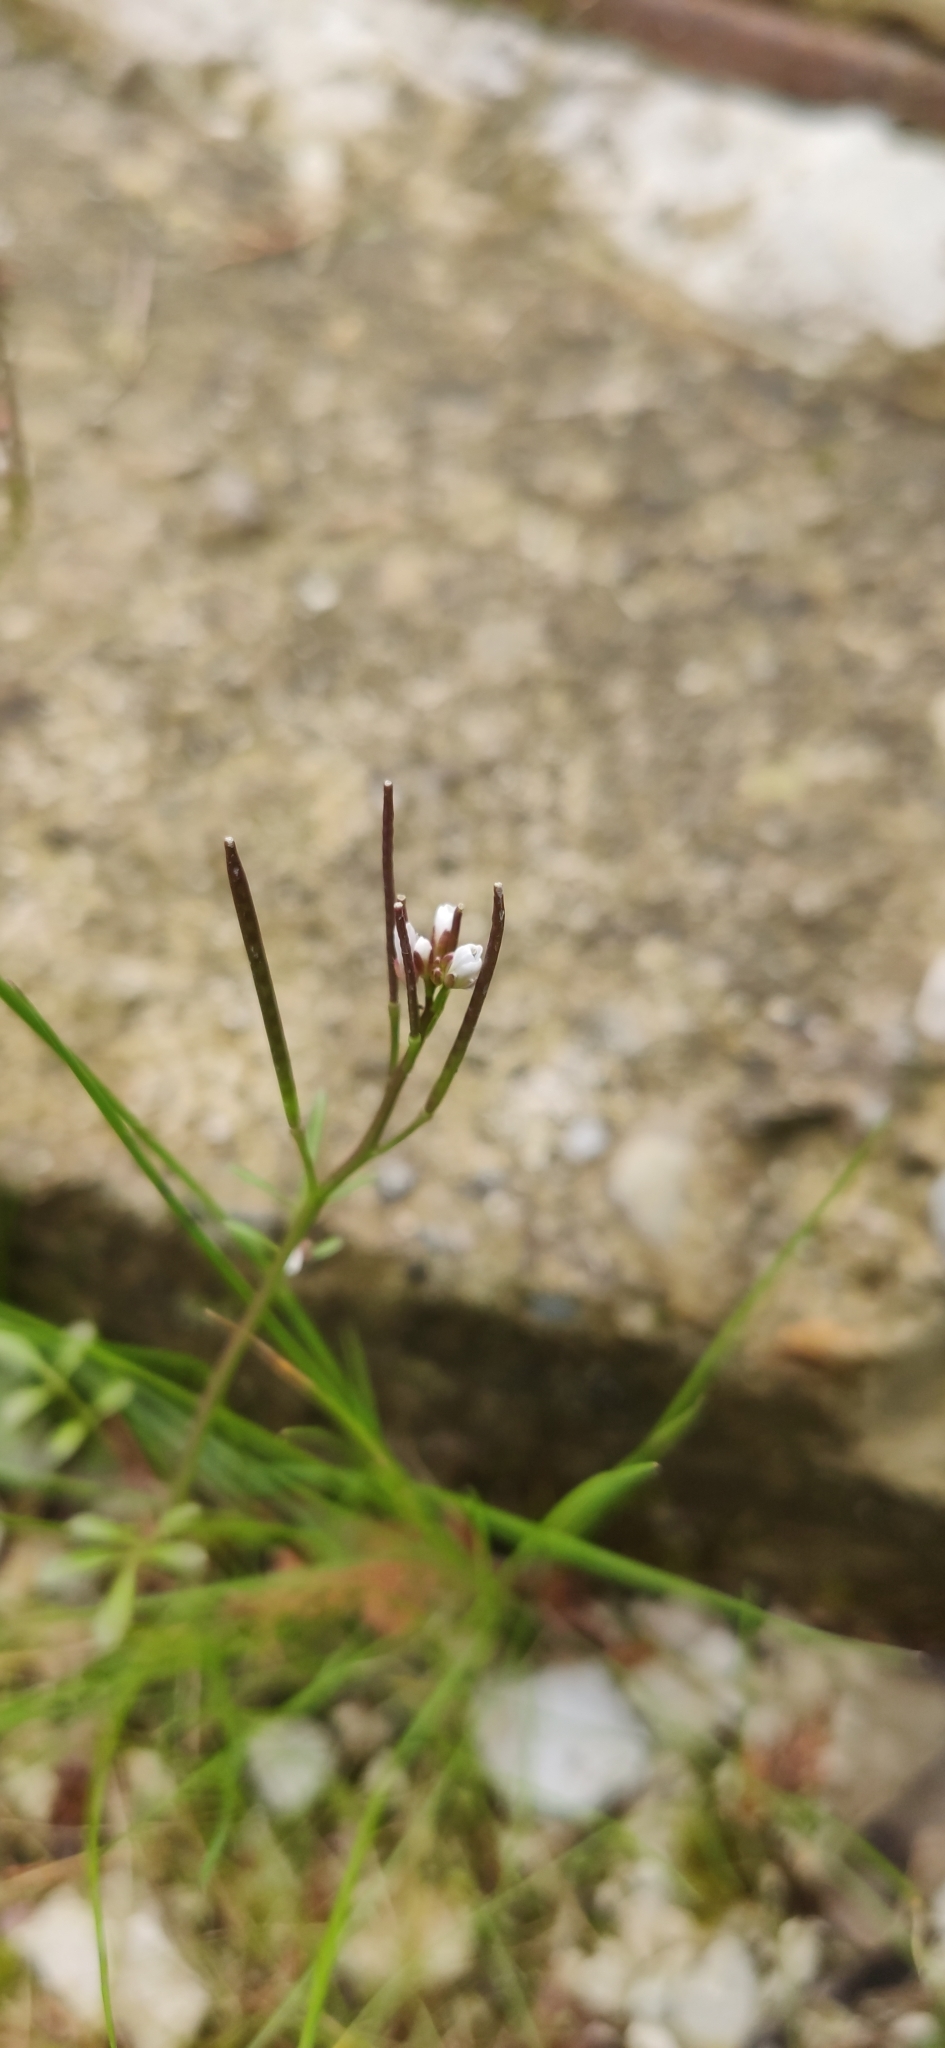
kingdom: Plantae
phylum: Tracheophyta
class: Magnoliopsida
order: Brassicales
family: Brassicaceae
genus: Cardamine
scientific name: Cardamine hirsuta
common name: Hairy bittercress
